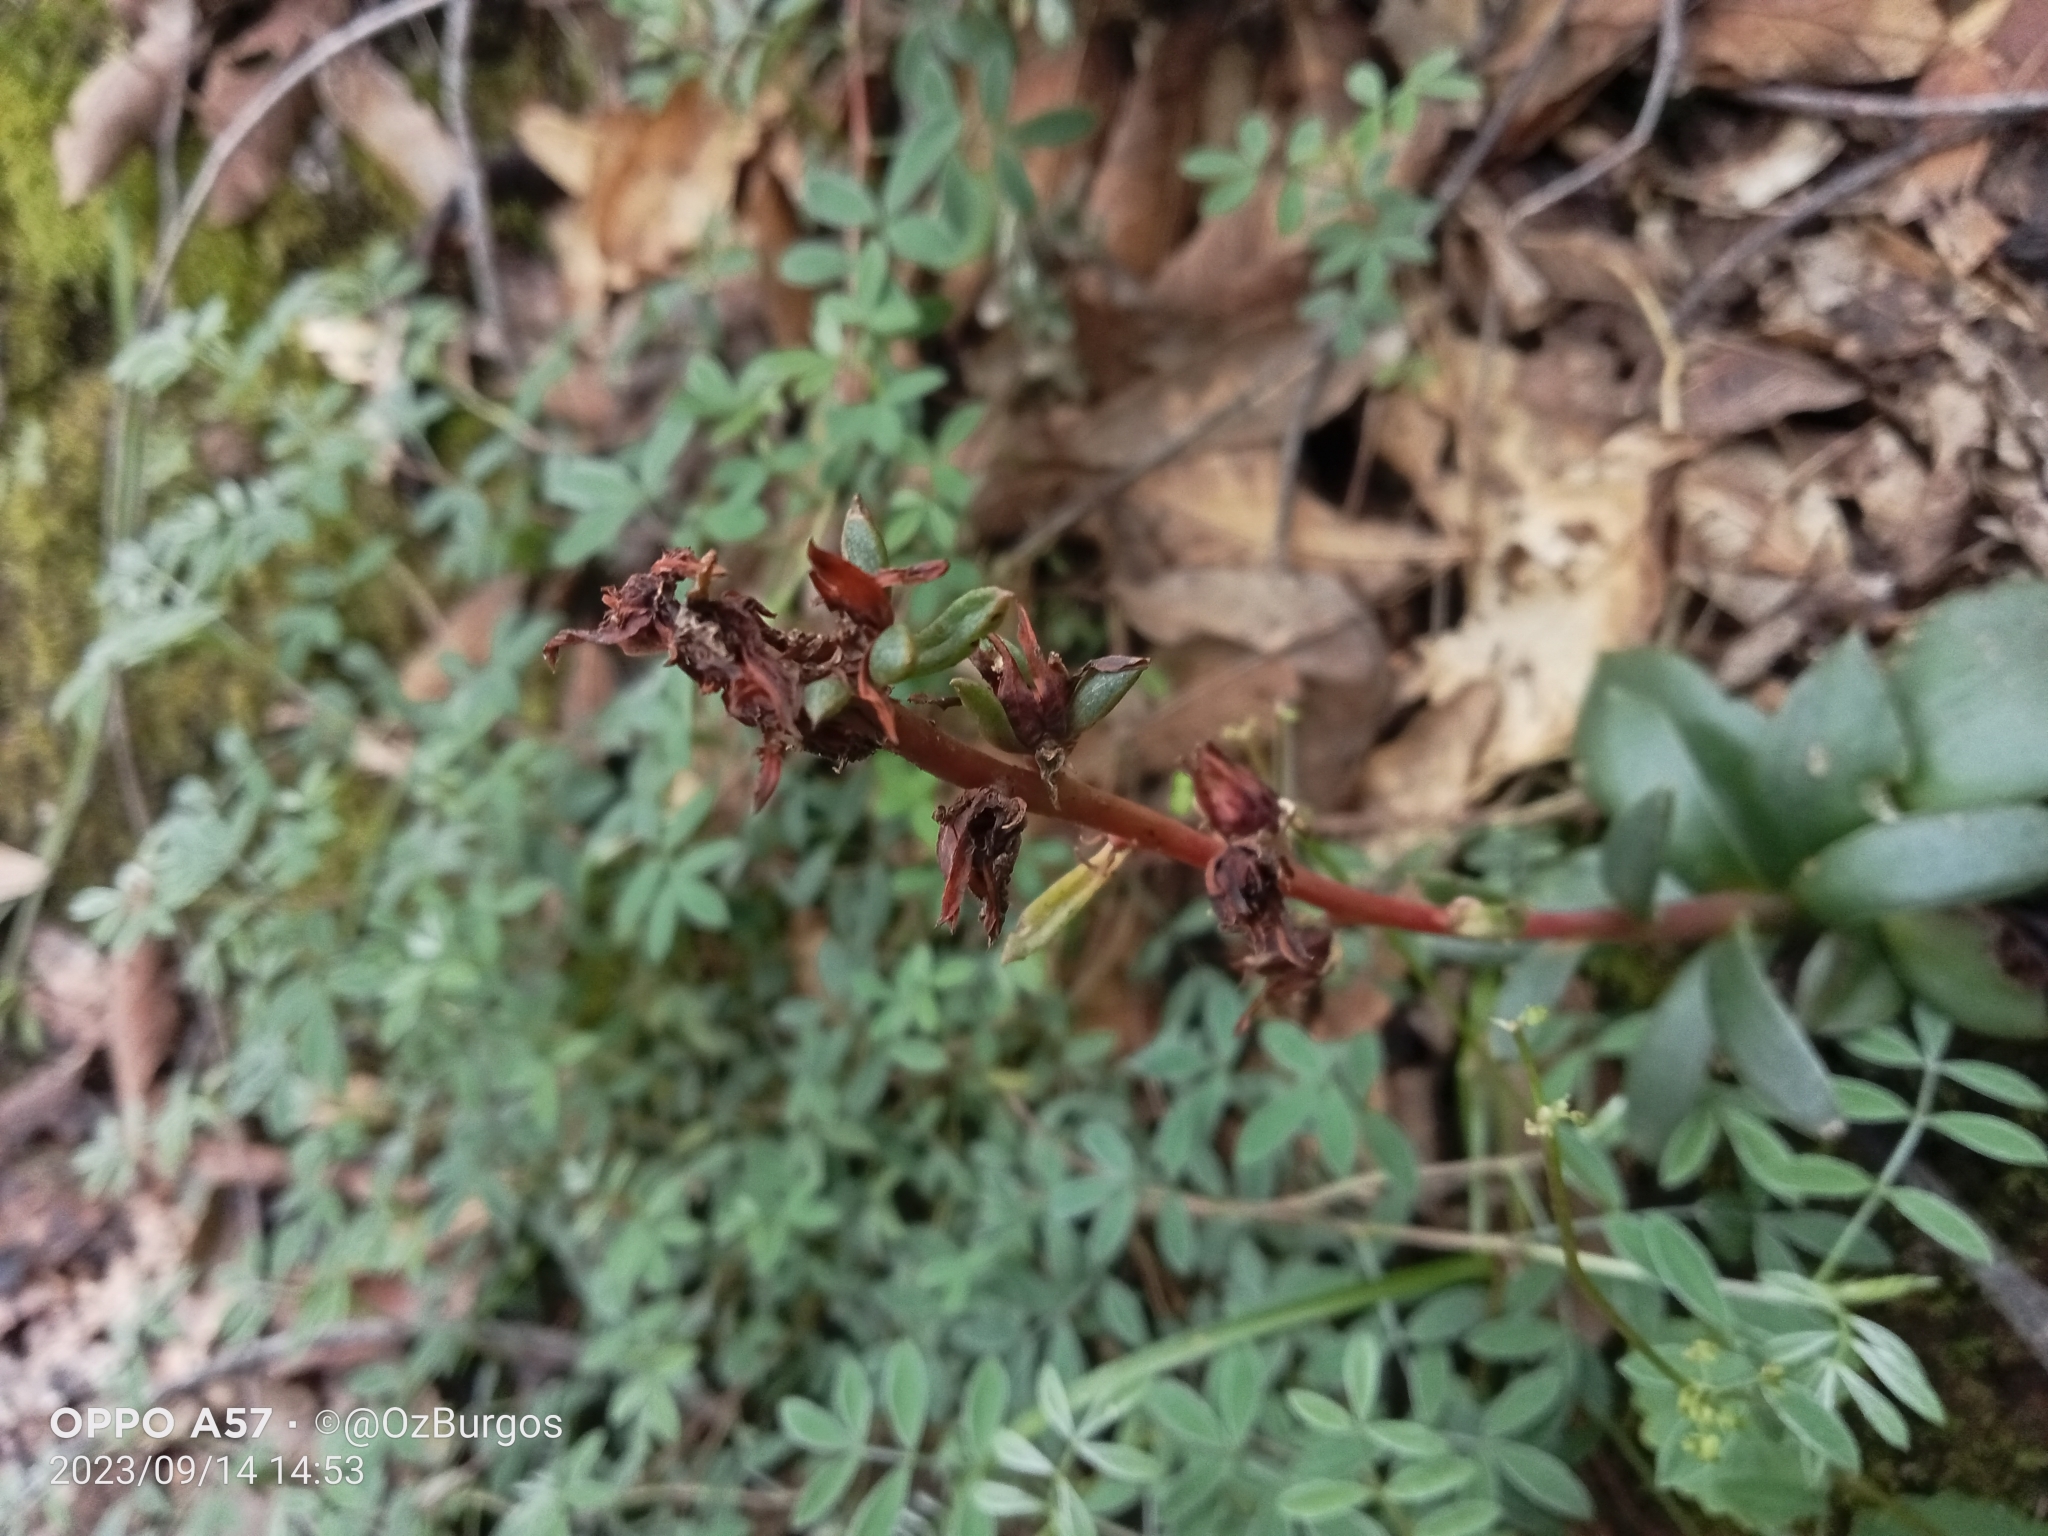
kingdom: Plantae
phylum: Tracheophyta
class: Magnoliopsida
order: Saxifragales
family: Crassulaceae
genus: Echeveria
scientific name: Echeveria mucronata
